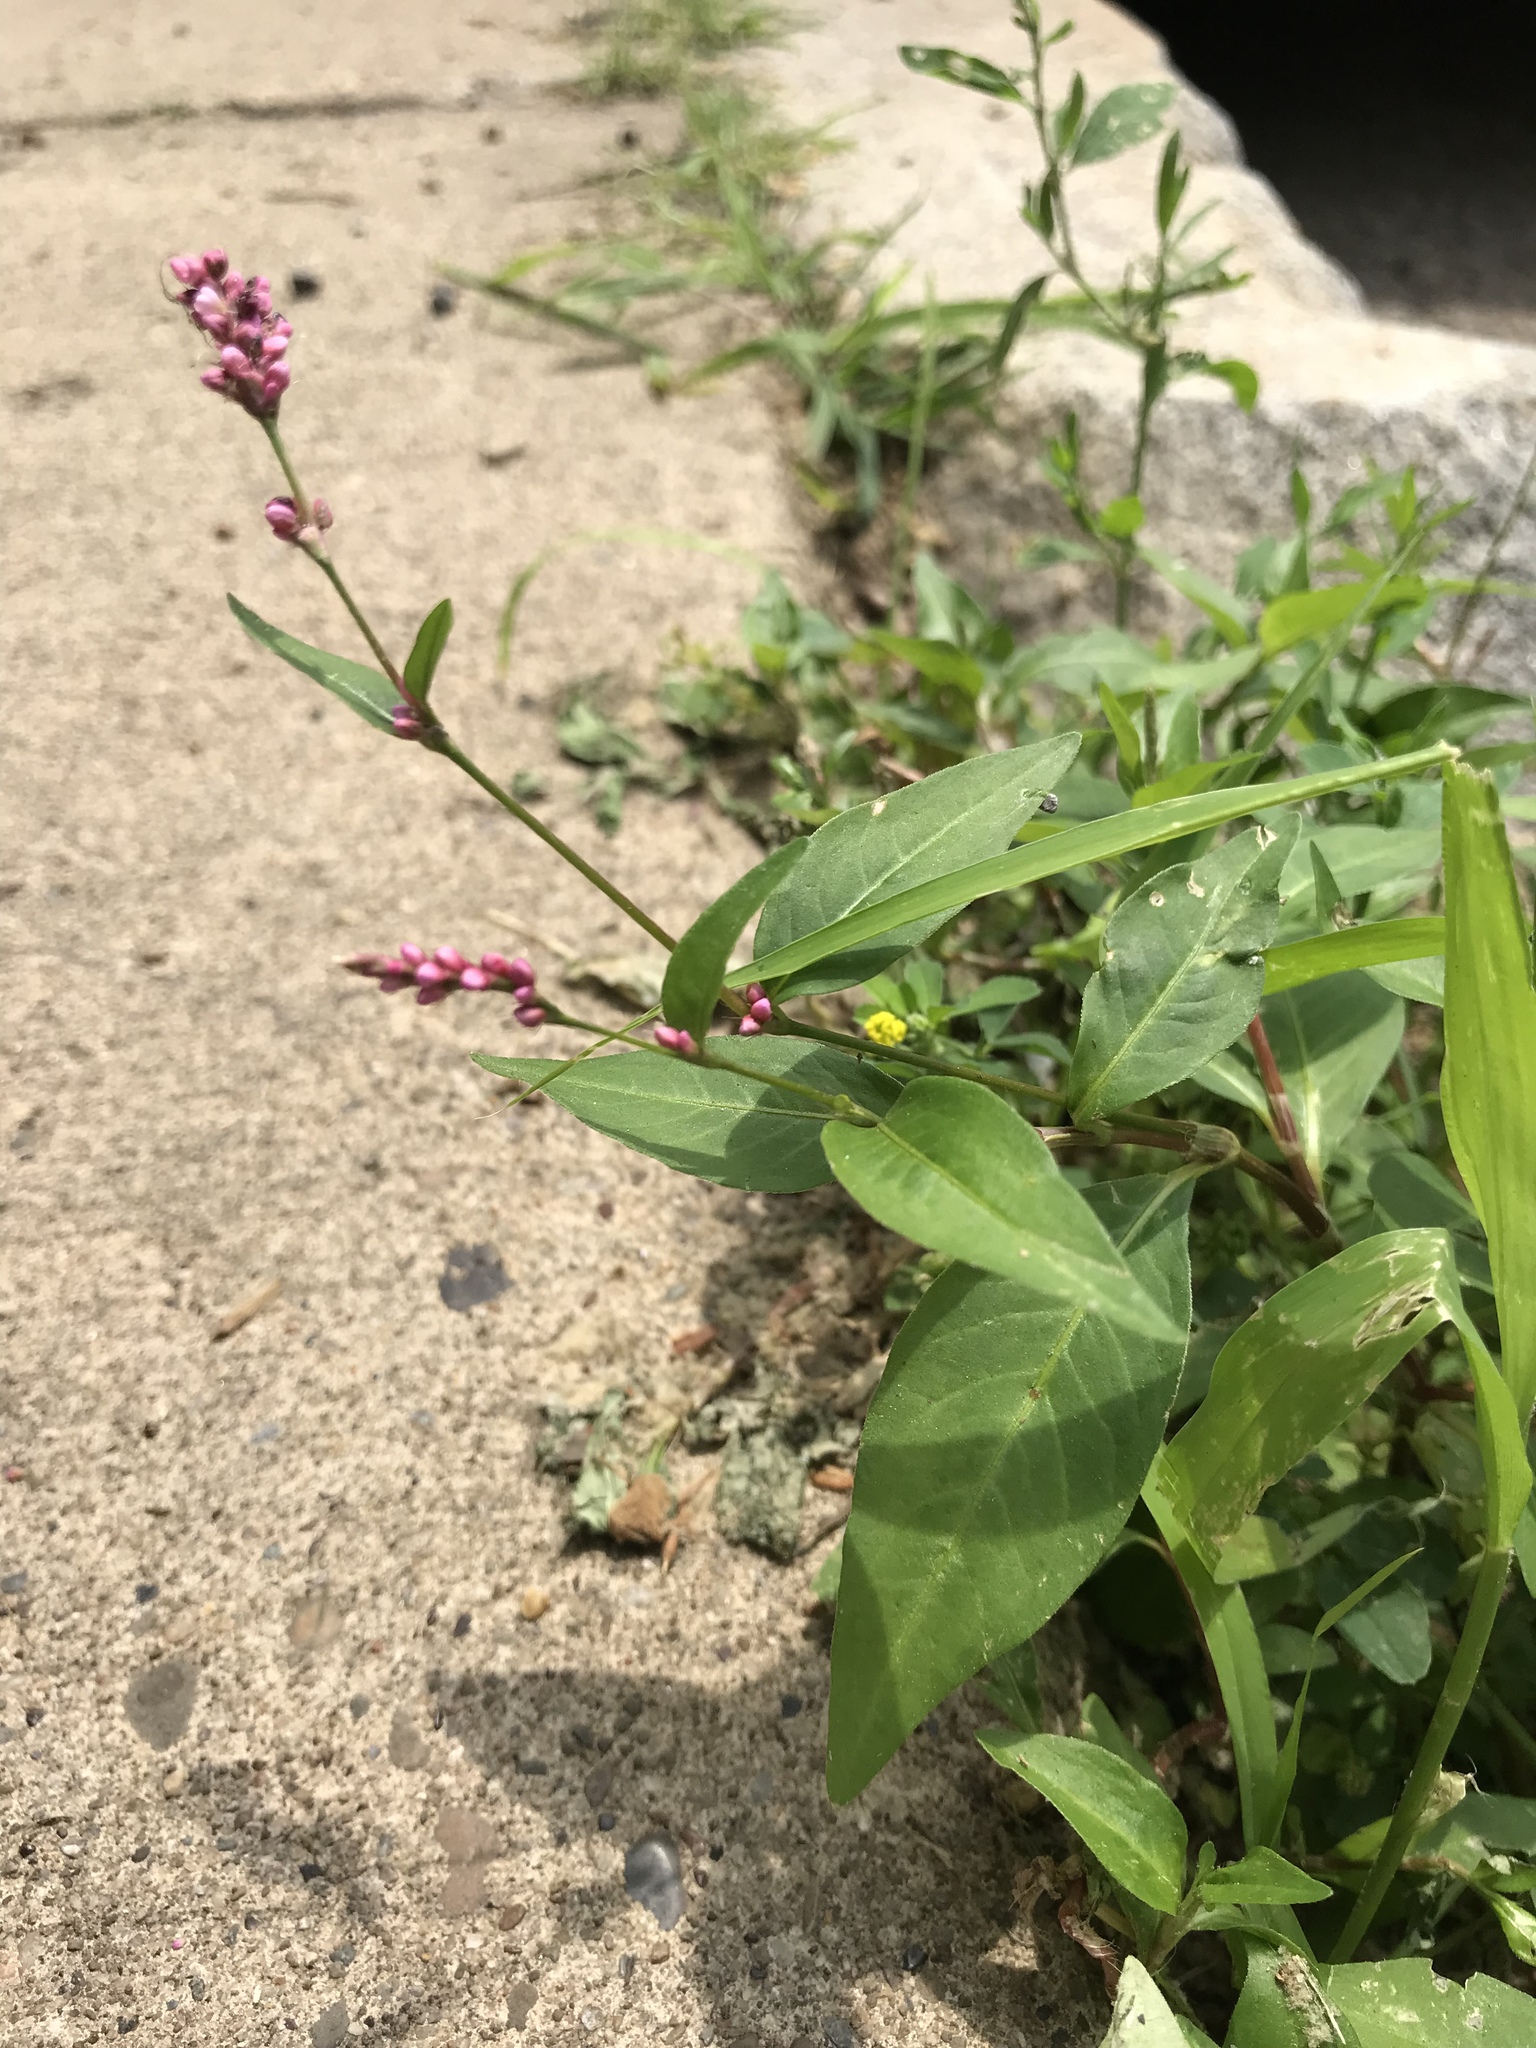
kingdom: Plantae
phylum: Tracheophyta
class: Magnoliopsida
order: Caryophyllales
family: Polygonaceae
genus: Persicaria
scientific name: Persicaria longiseta
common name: Bristly lady's-thumb
